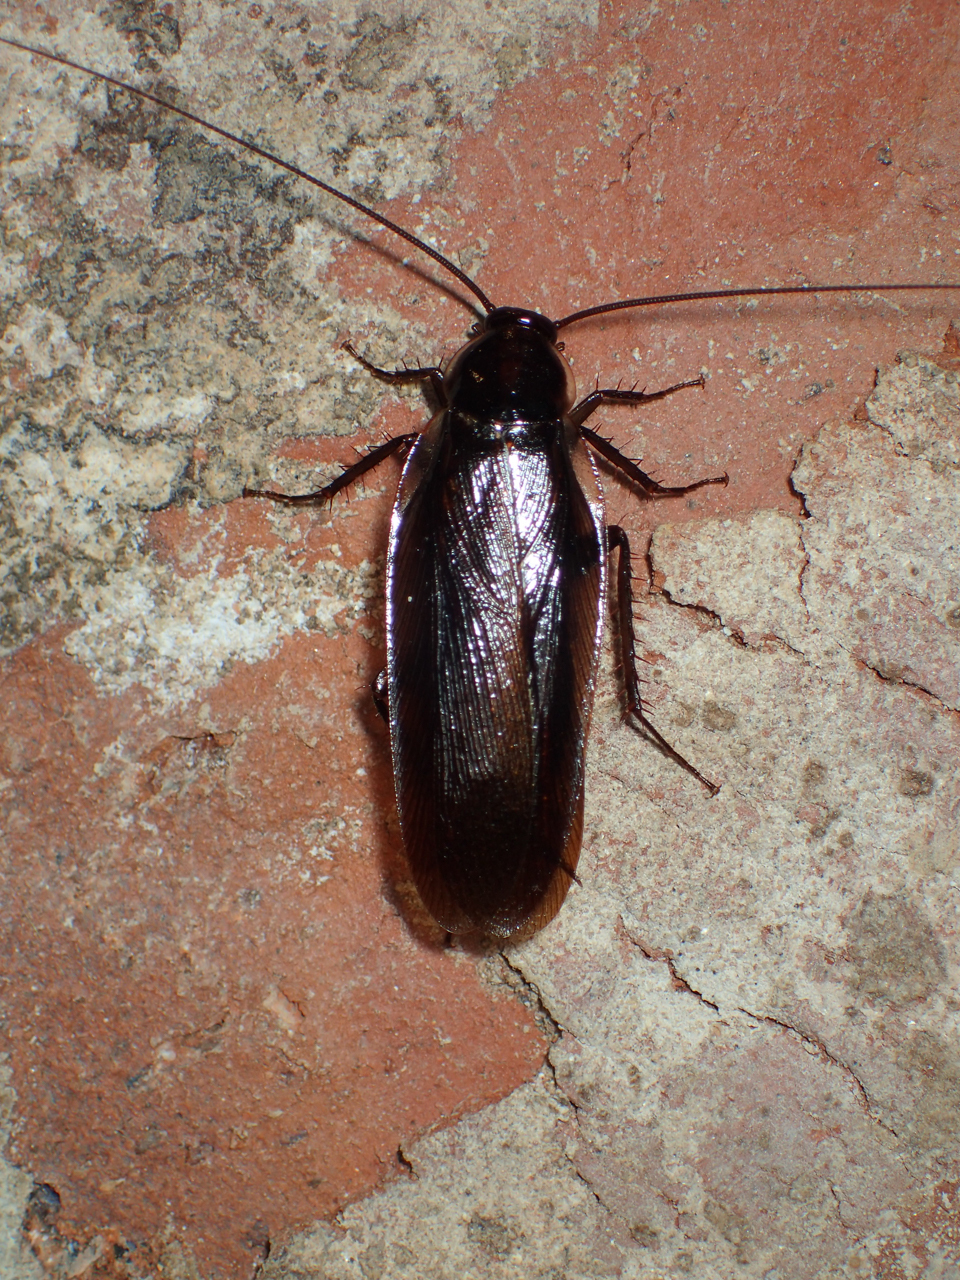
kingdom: Animalia
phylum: Arthropoda
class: Insecta
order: Blattodea
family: Ectobiidae
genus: Parcoblatta
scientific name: Parcoblatta pennsylvanica
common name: Pennsylvanian wood cockroach
